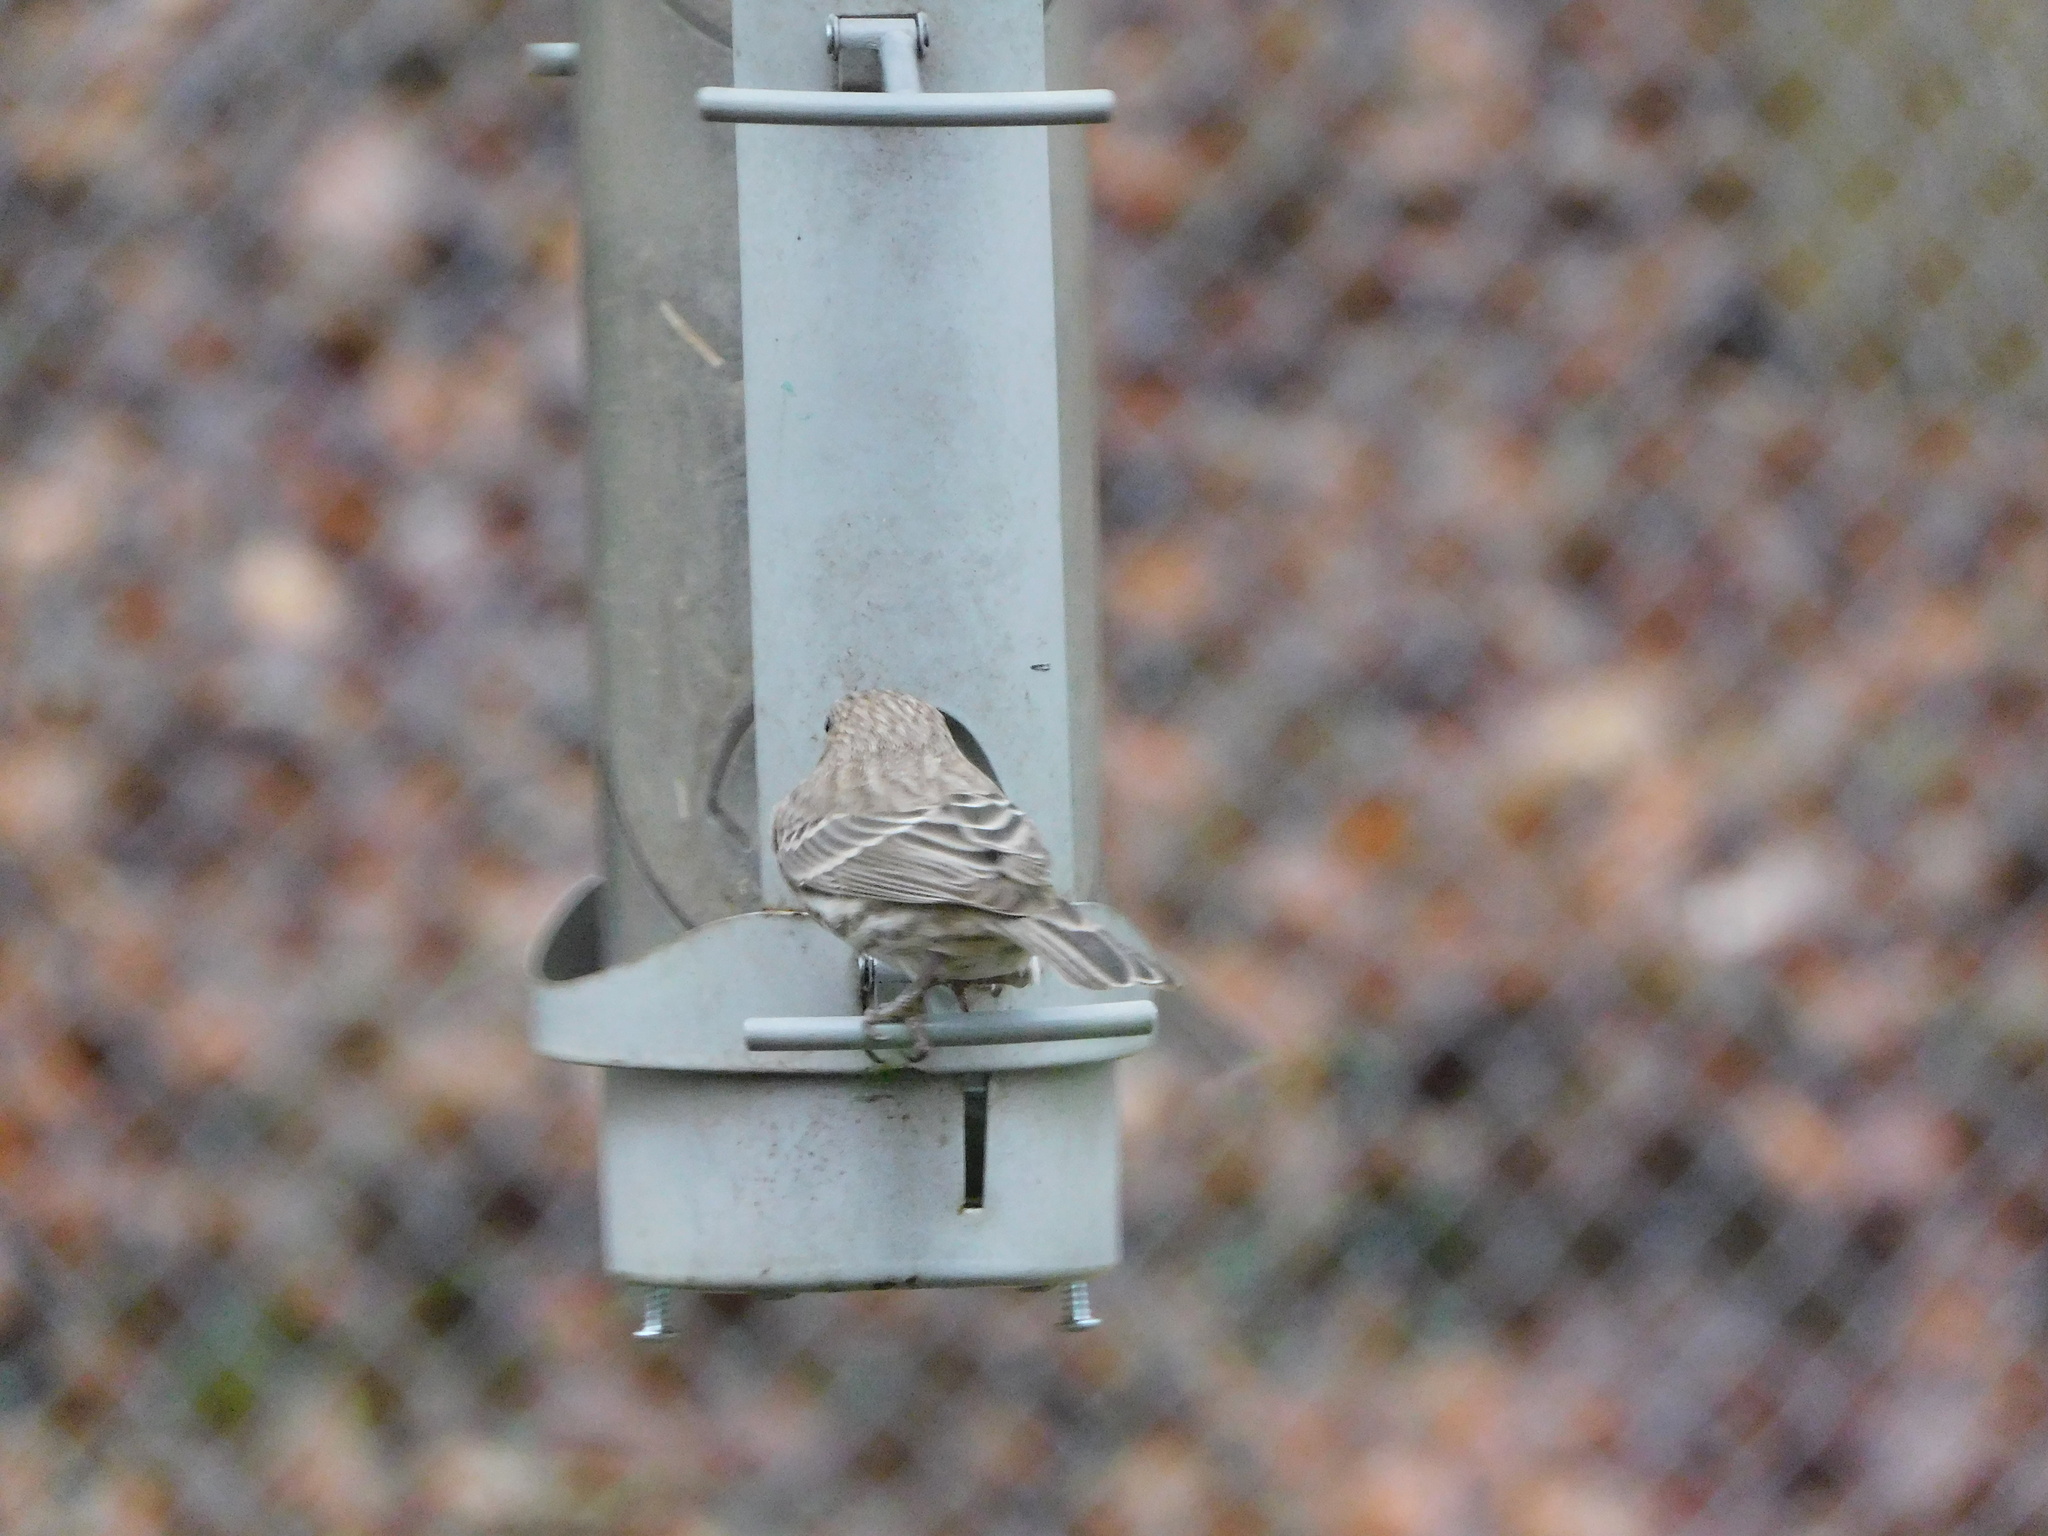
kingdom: Animalia
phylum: Chordata
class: Aves
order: Passeriformes
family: Fringillidae
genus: Haemorhous
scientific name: Haemorhous mexicanus
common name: House finch
